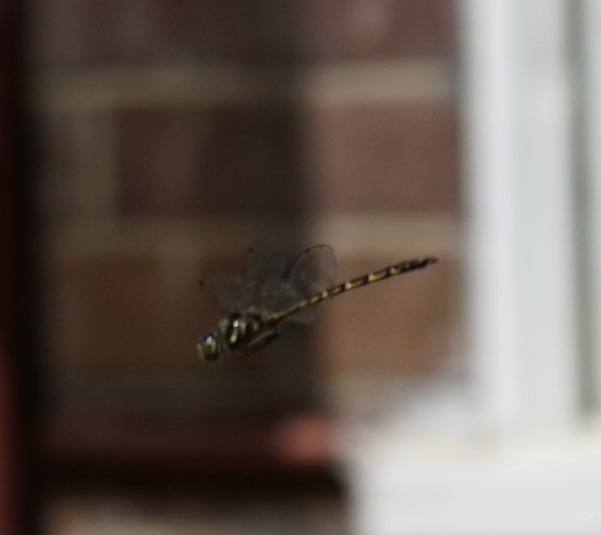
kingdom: Animalia
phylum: Arthropoda
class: Insecta
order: Odonata
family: Corduliidae
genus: Hemicordulia
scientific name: Hemicordulia australiae
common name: Sentry dragonfly
